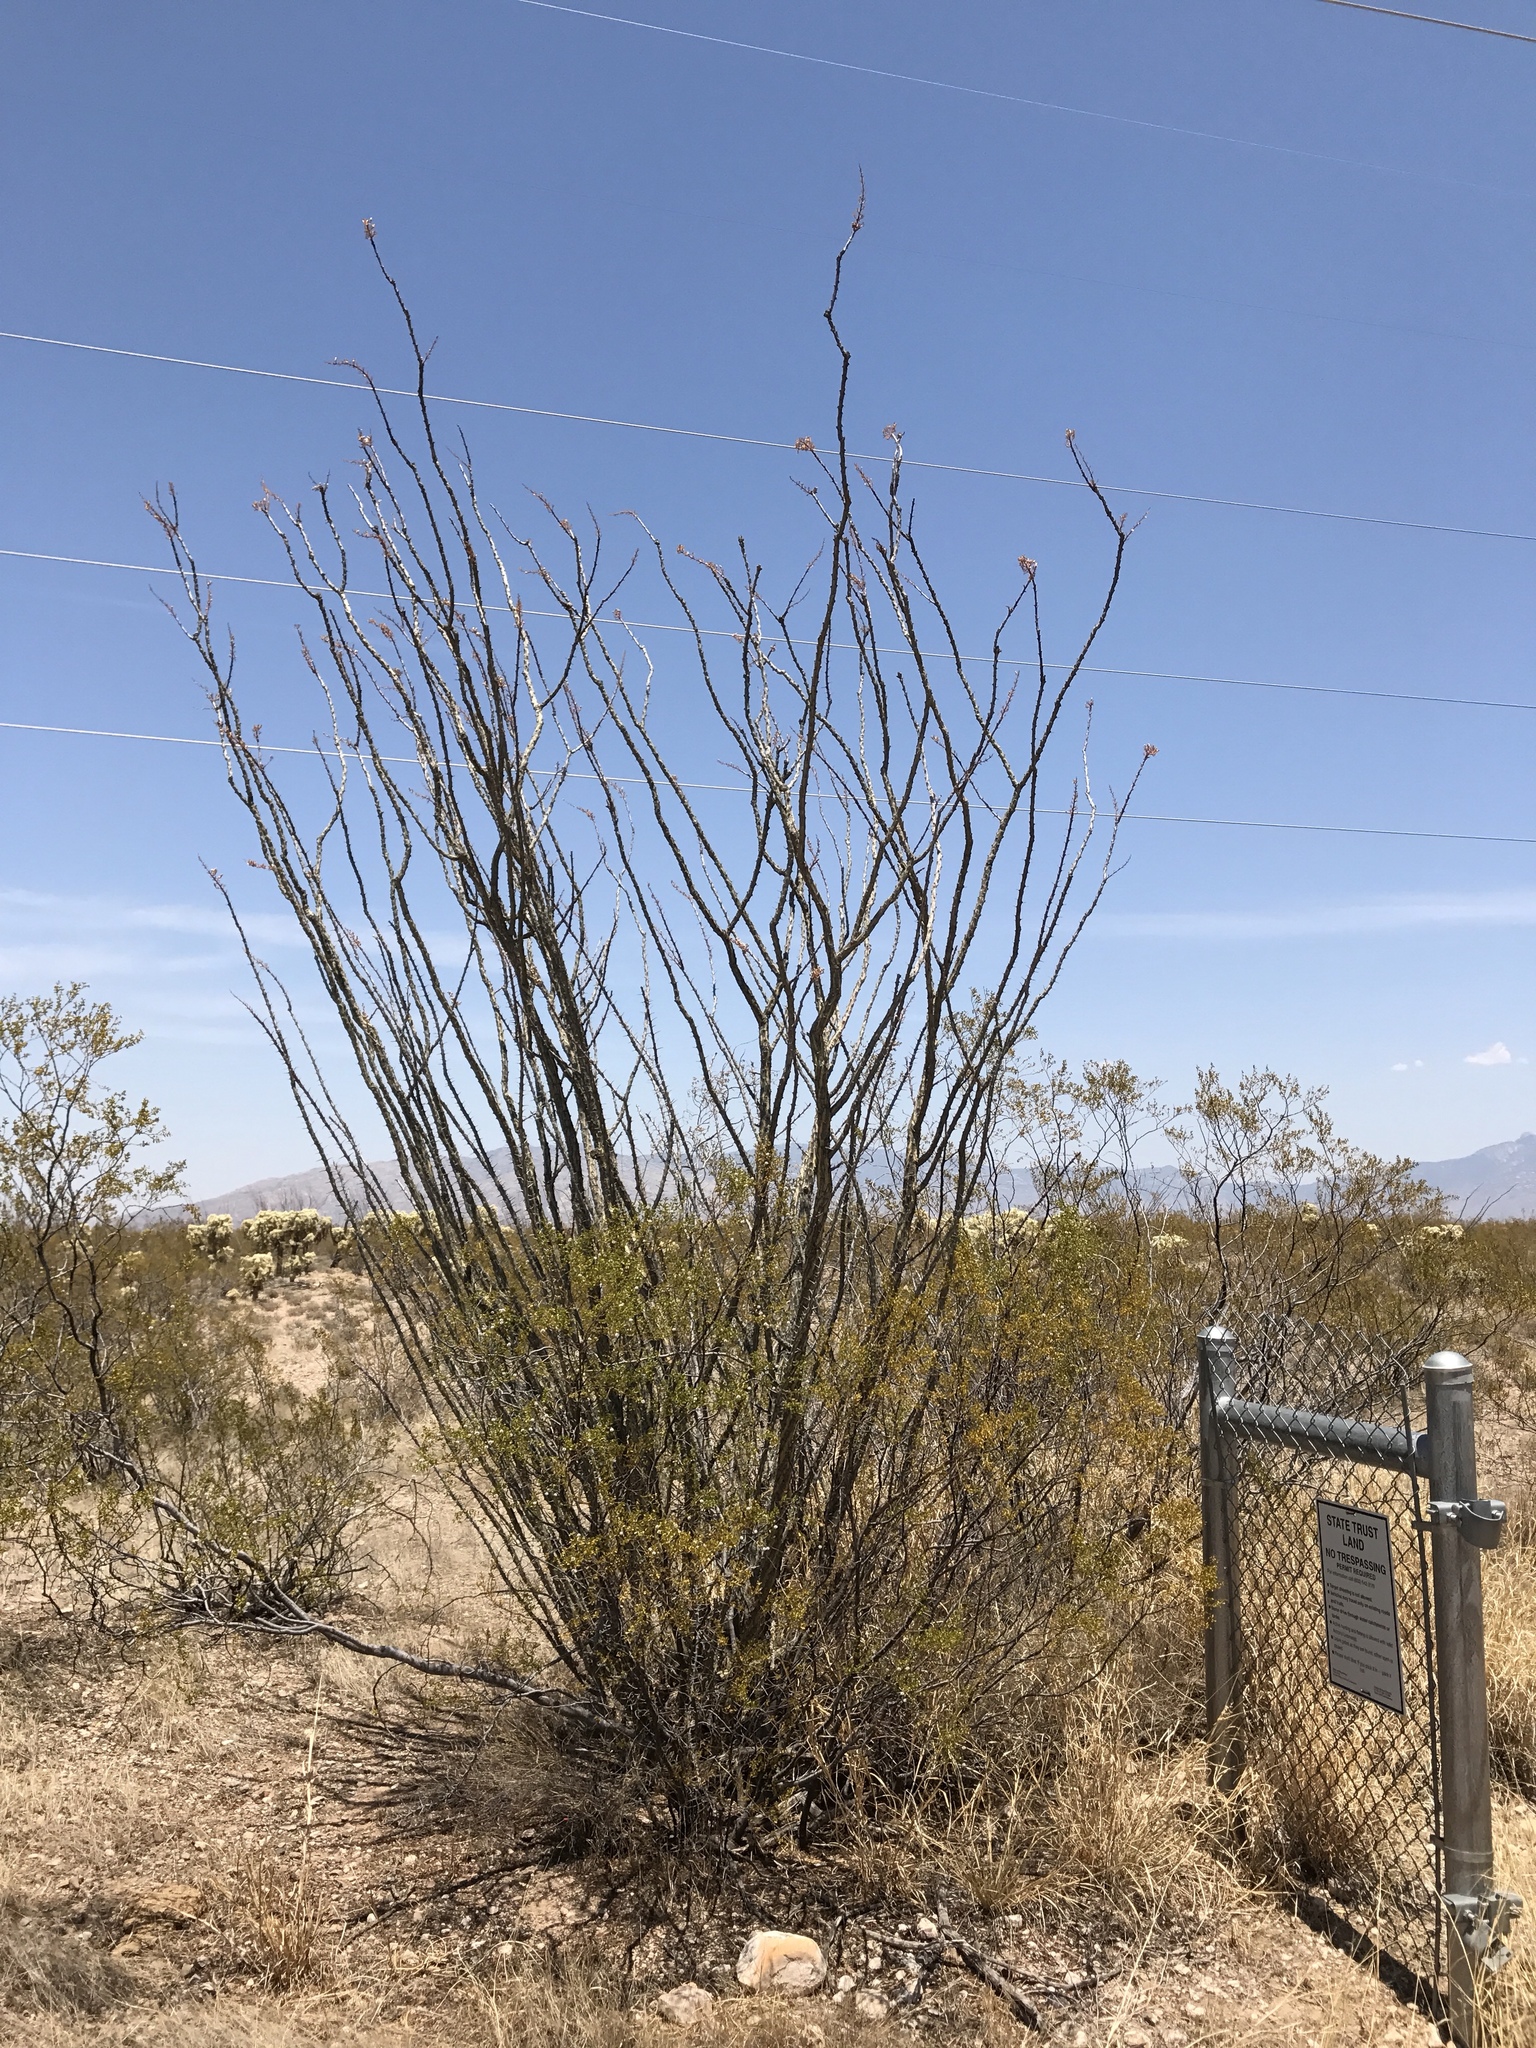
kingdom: Plantae
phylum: Tracheophyta
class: Magnoliopsida
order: Ericales
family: Fouquieriaceae
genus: Fouquieria
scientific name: Fouquieria splendens
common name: Vine-cactus
